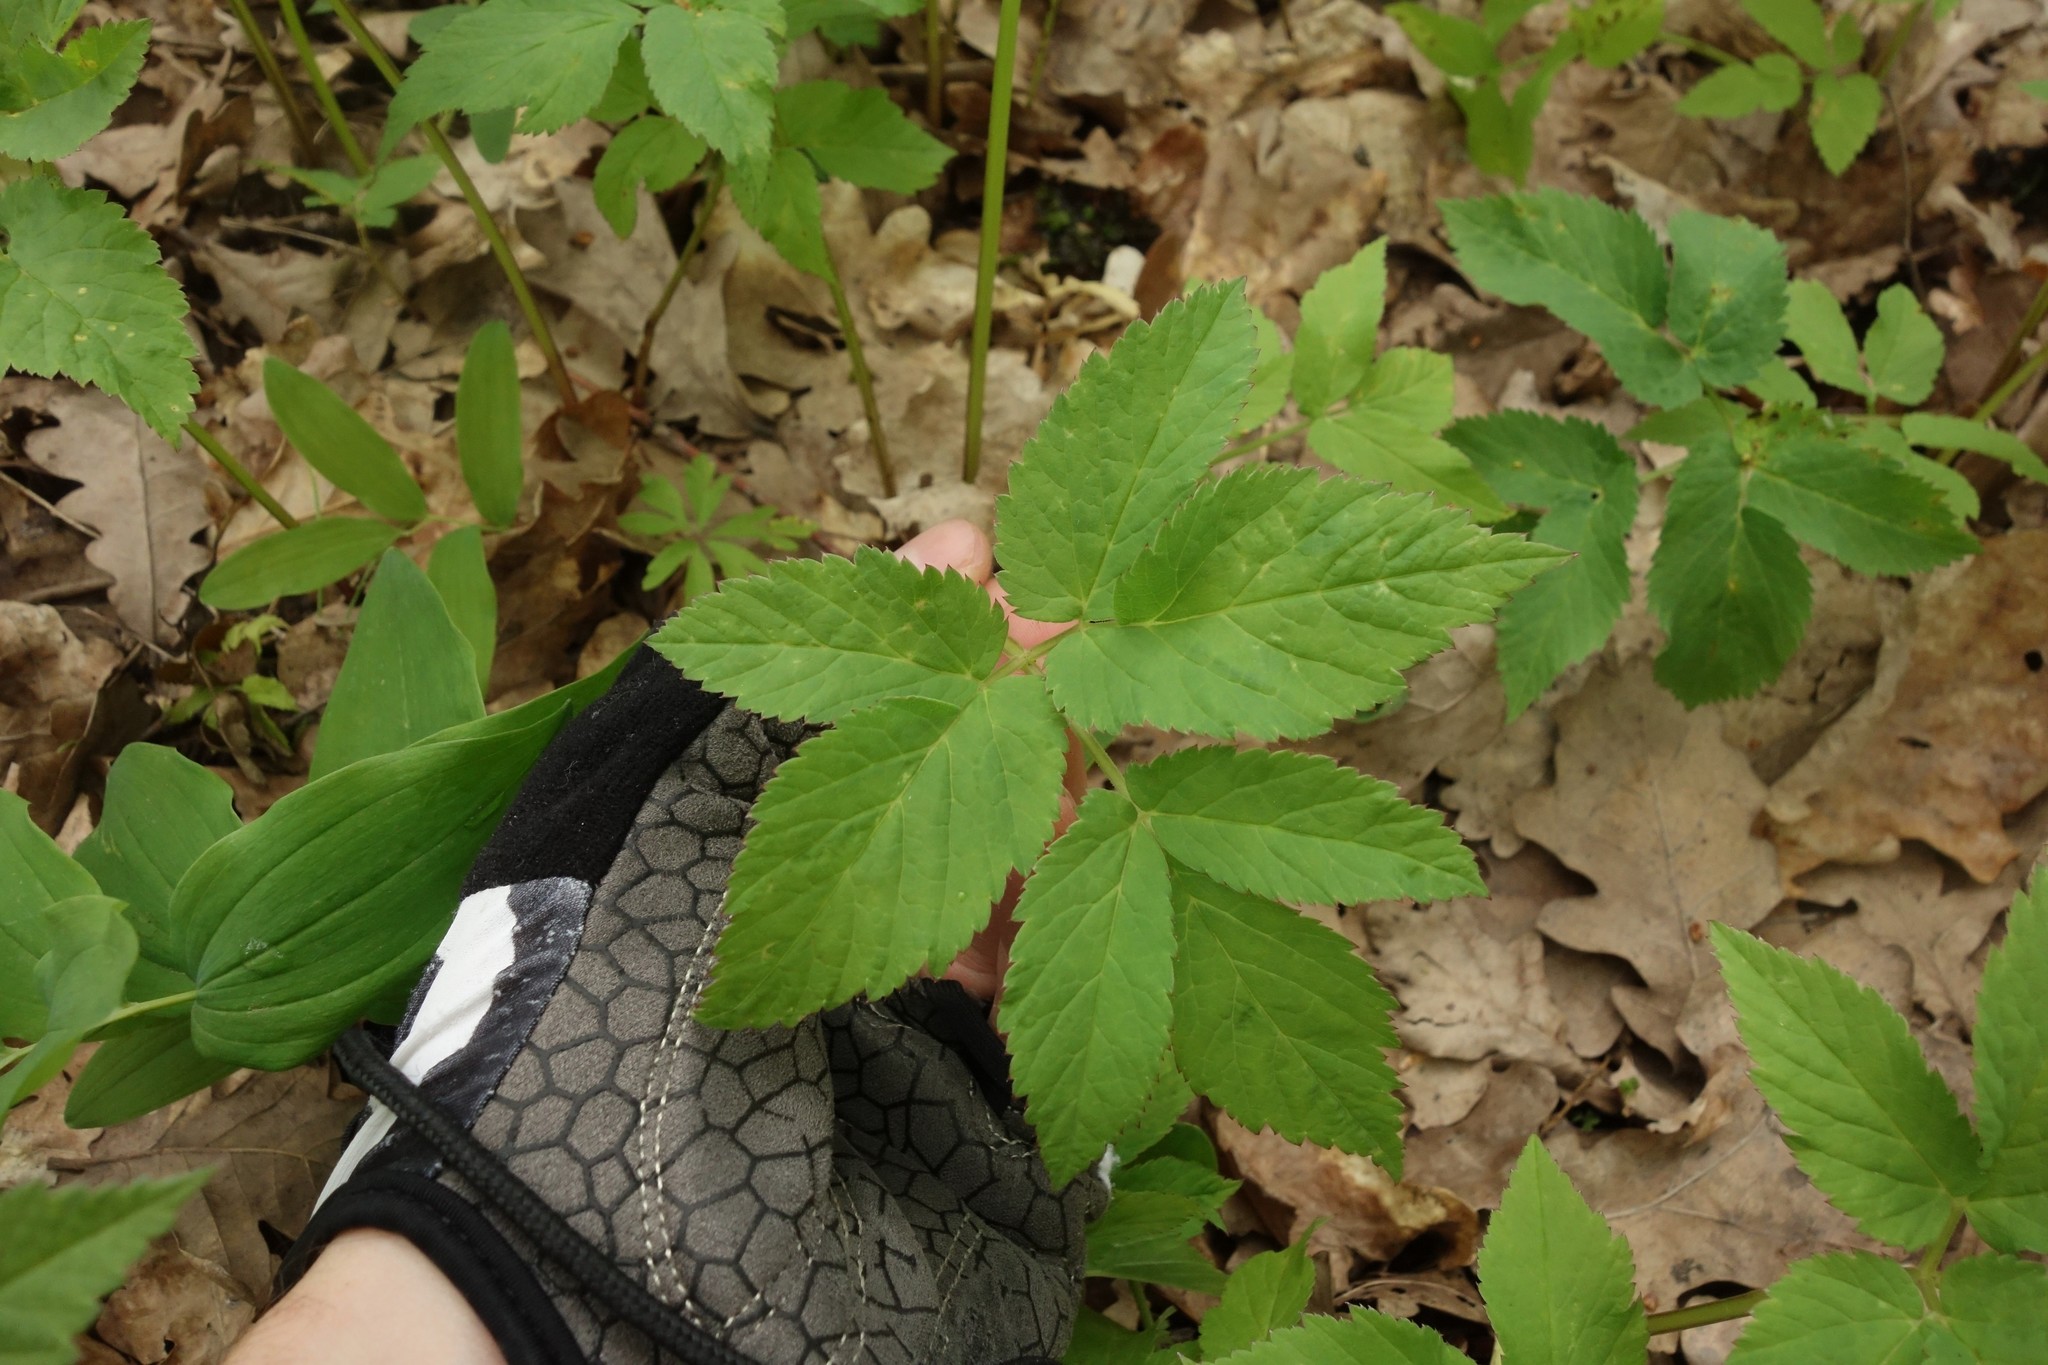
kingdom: Plantae
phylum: Tracheophyta
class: Magnoliopsida
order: Apiales
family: Apiaceae
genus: Aegopodium
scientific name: Aegopodium podagraria
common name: Ground-elder
